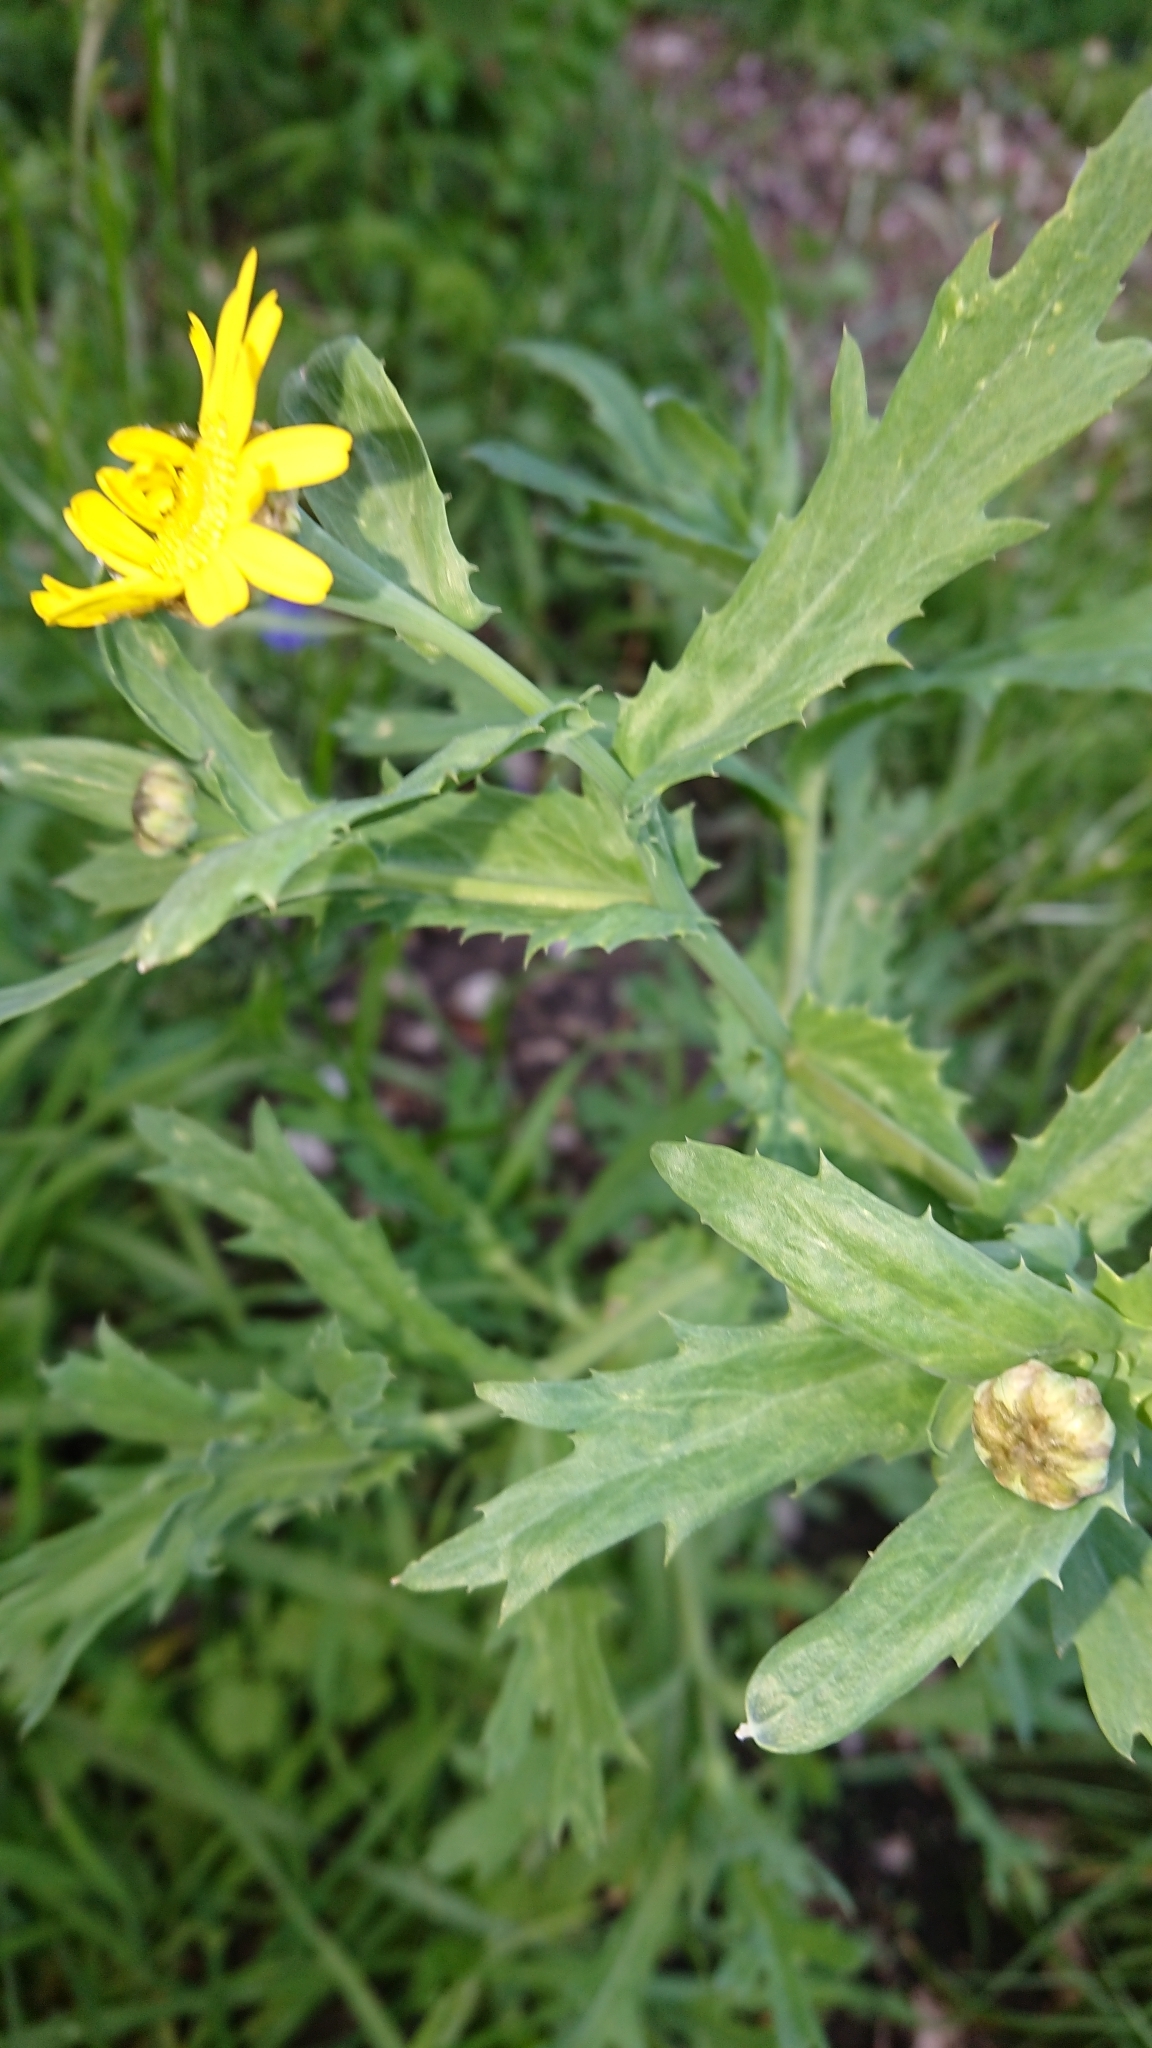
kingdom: Plantae
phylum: Tracheophyta
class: Magnoliopsida
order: Asterales
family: Asteraceae
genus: Glebionis
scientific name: Glebionis segetum
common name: Corndaisy
